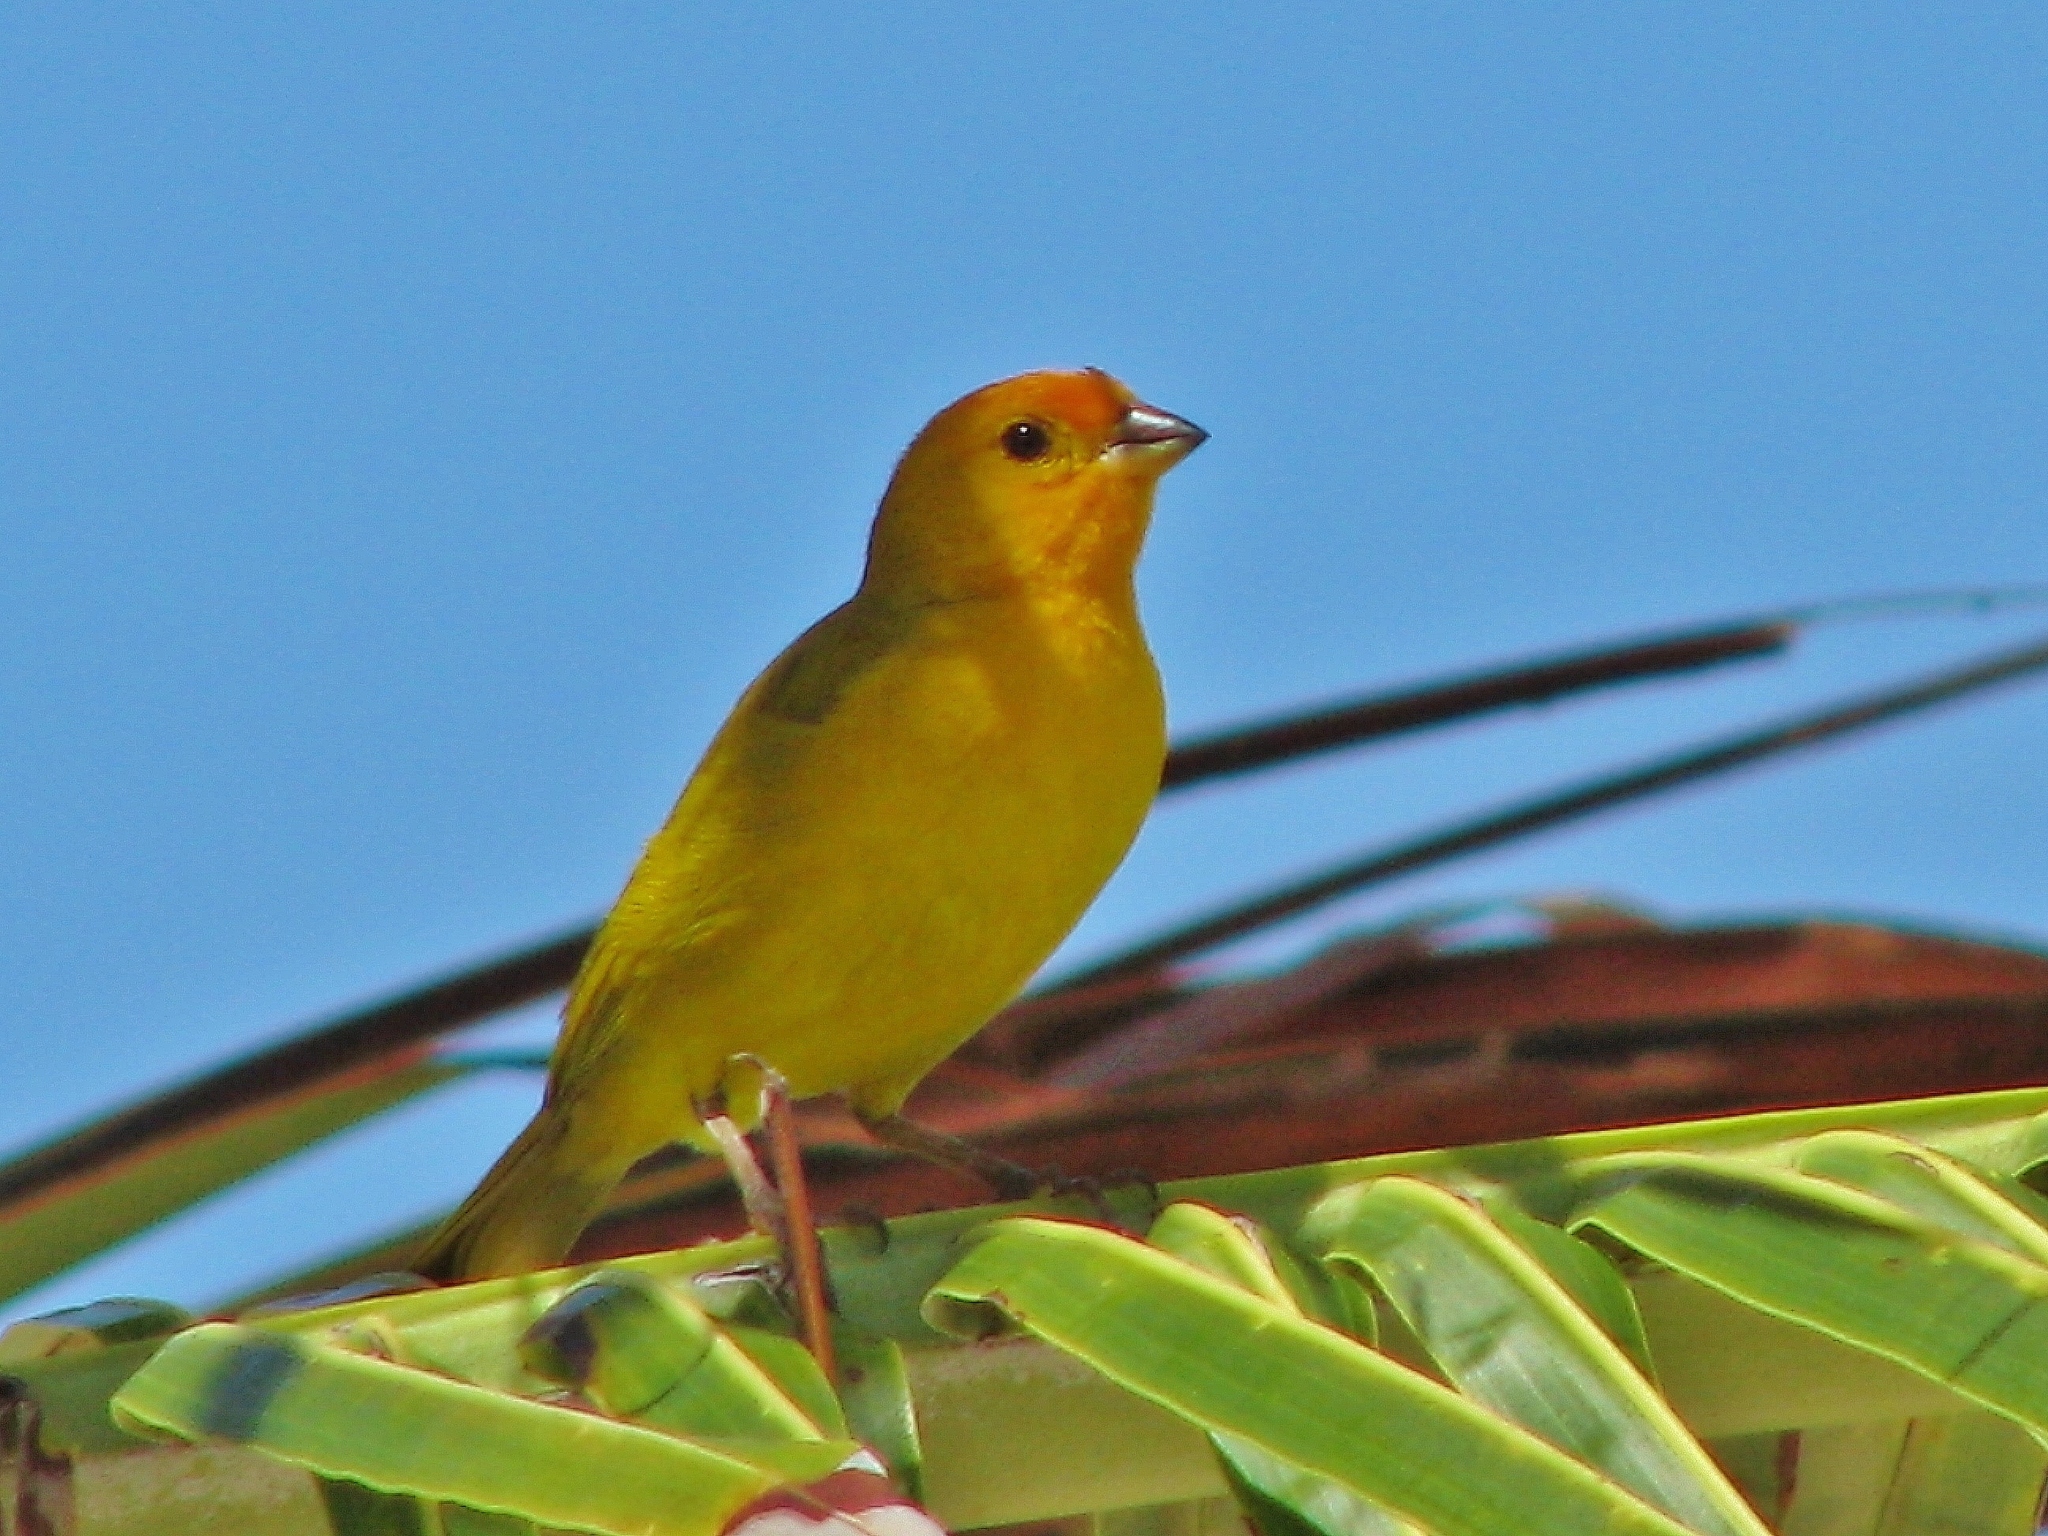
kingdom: Animalia
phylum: Chordata
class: Aves
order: Passeriformes
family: Thraupidae
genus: Sicalis
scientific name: Sicalis flaveola
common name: Saffron finch
